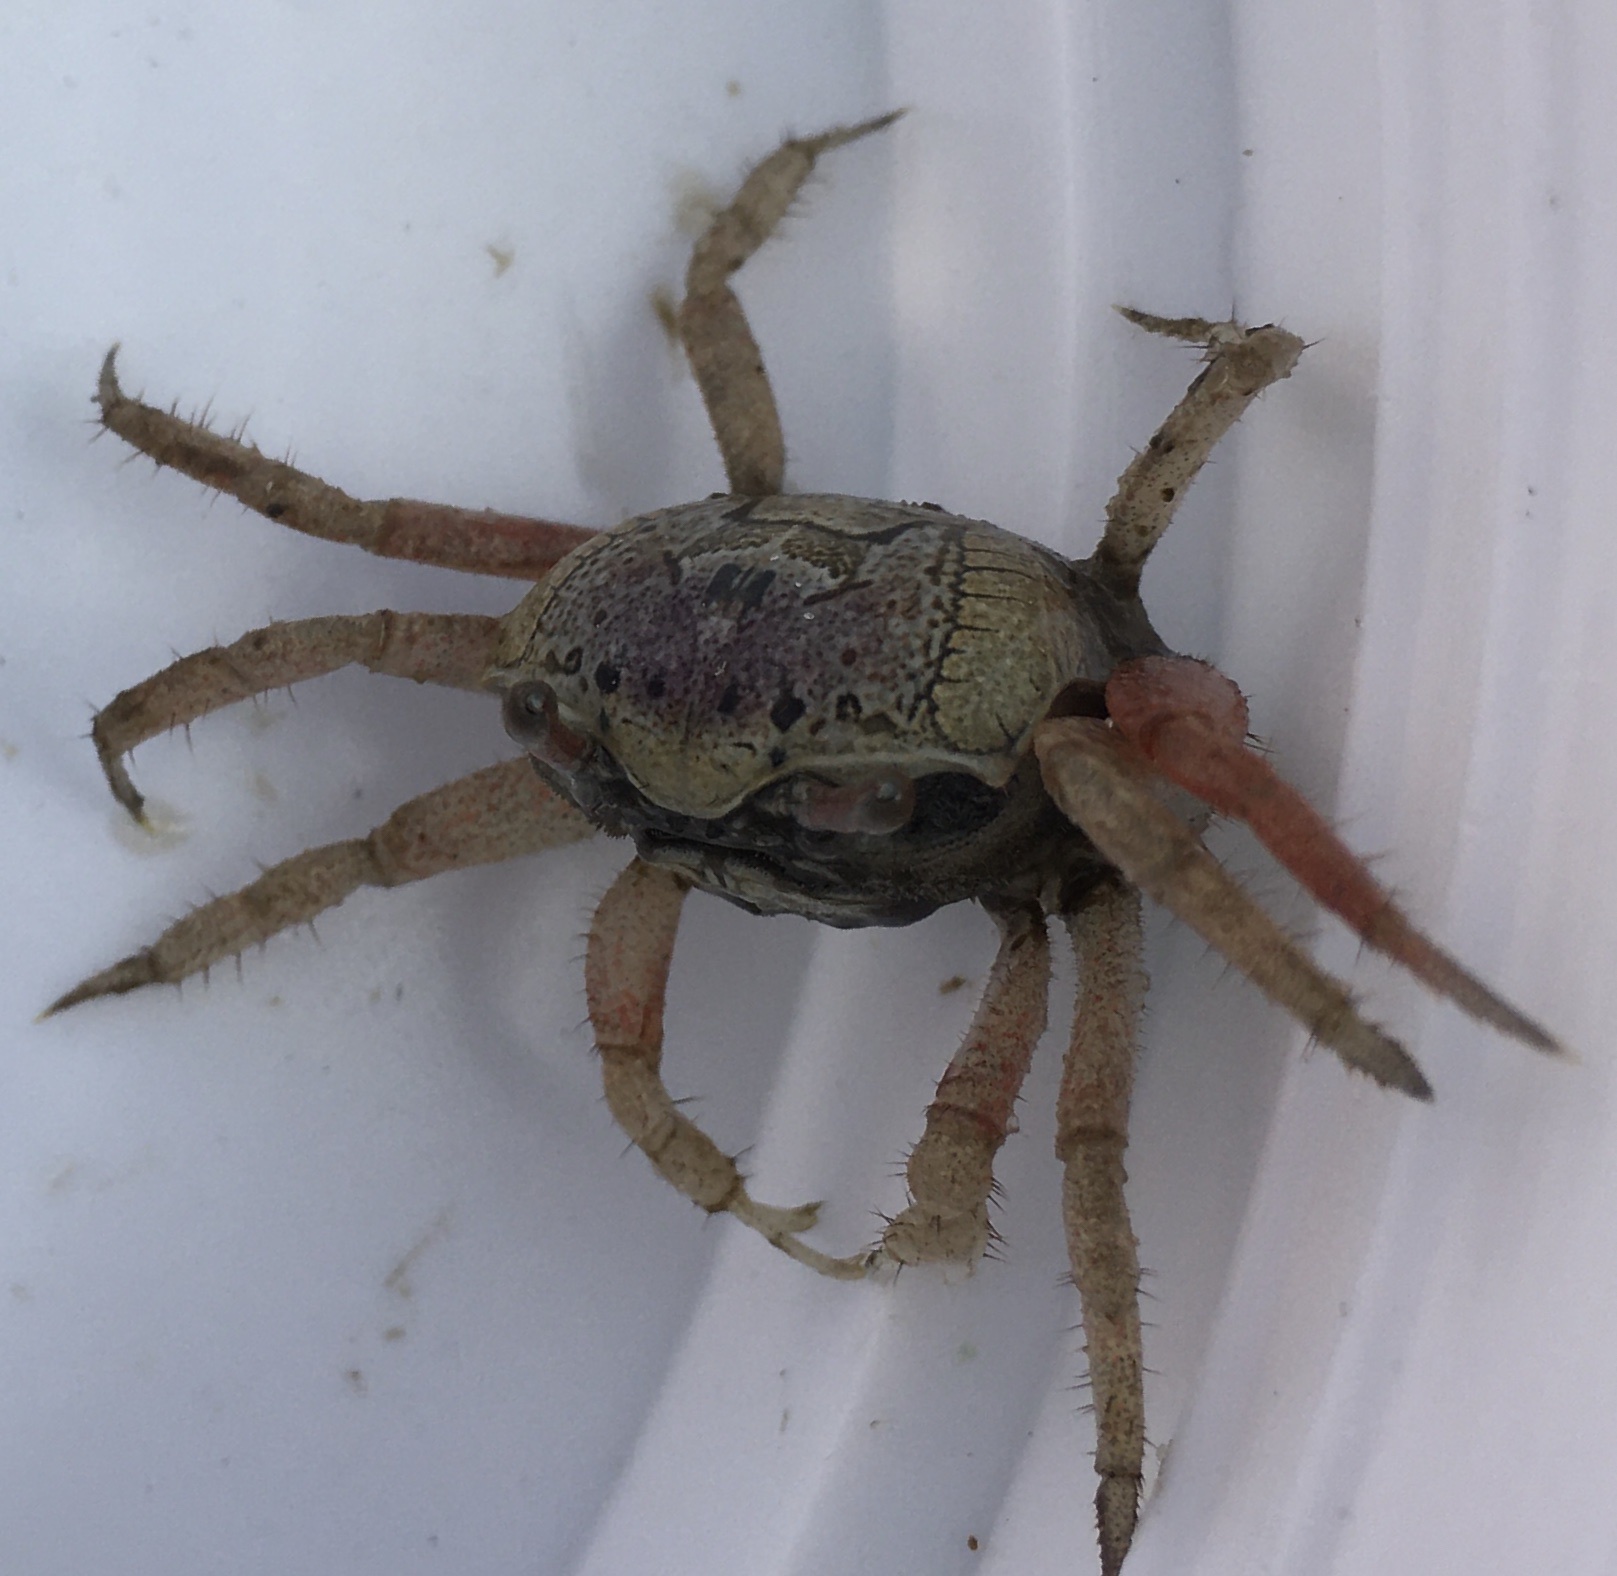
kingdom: Animalia
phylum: Arthropoda
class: Malacostraca
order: Decapoda
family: Ocypodidae
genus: Leptuca
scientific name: Leptuca pugilator
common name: Atlantic sand fiddler crab
